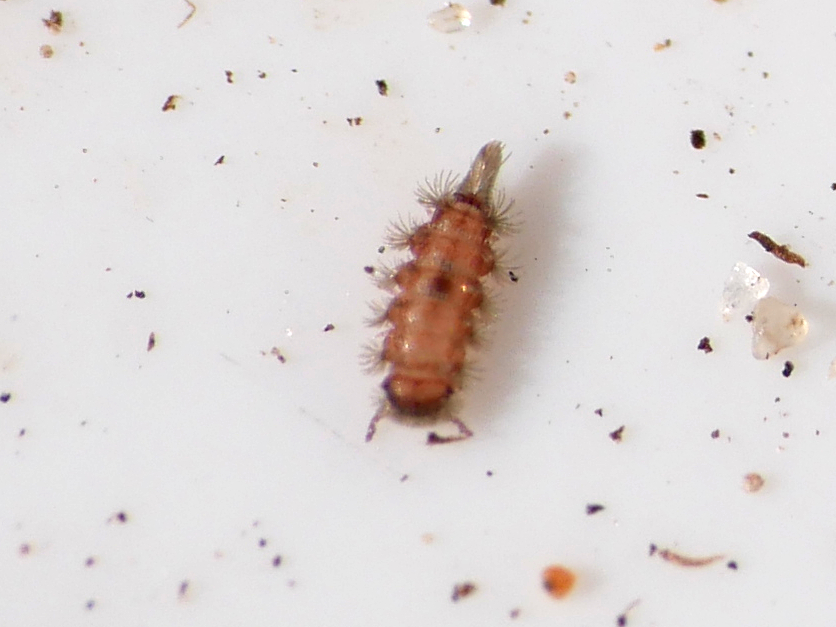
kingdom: Animalia
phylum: Arthropoda
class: Diplopoda
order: Polyxenida
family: Polyxenidae
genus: Polyxenus
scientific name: Polyxenus lagurus
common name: Bristly millipede
